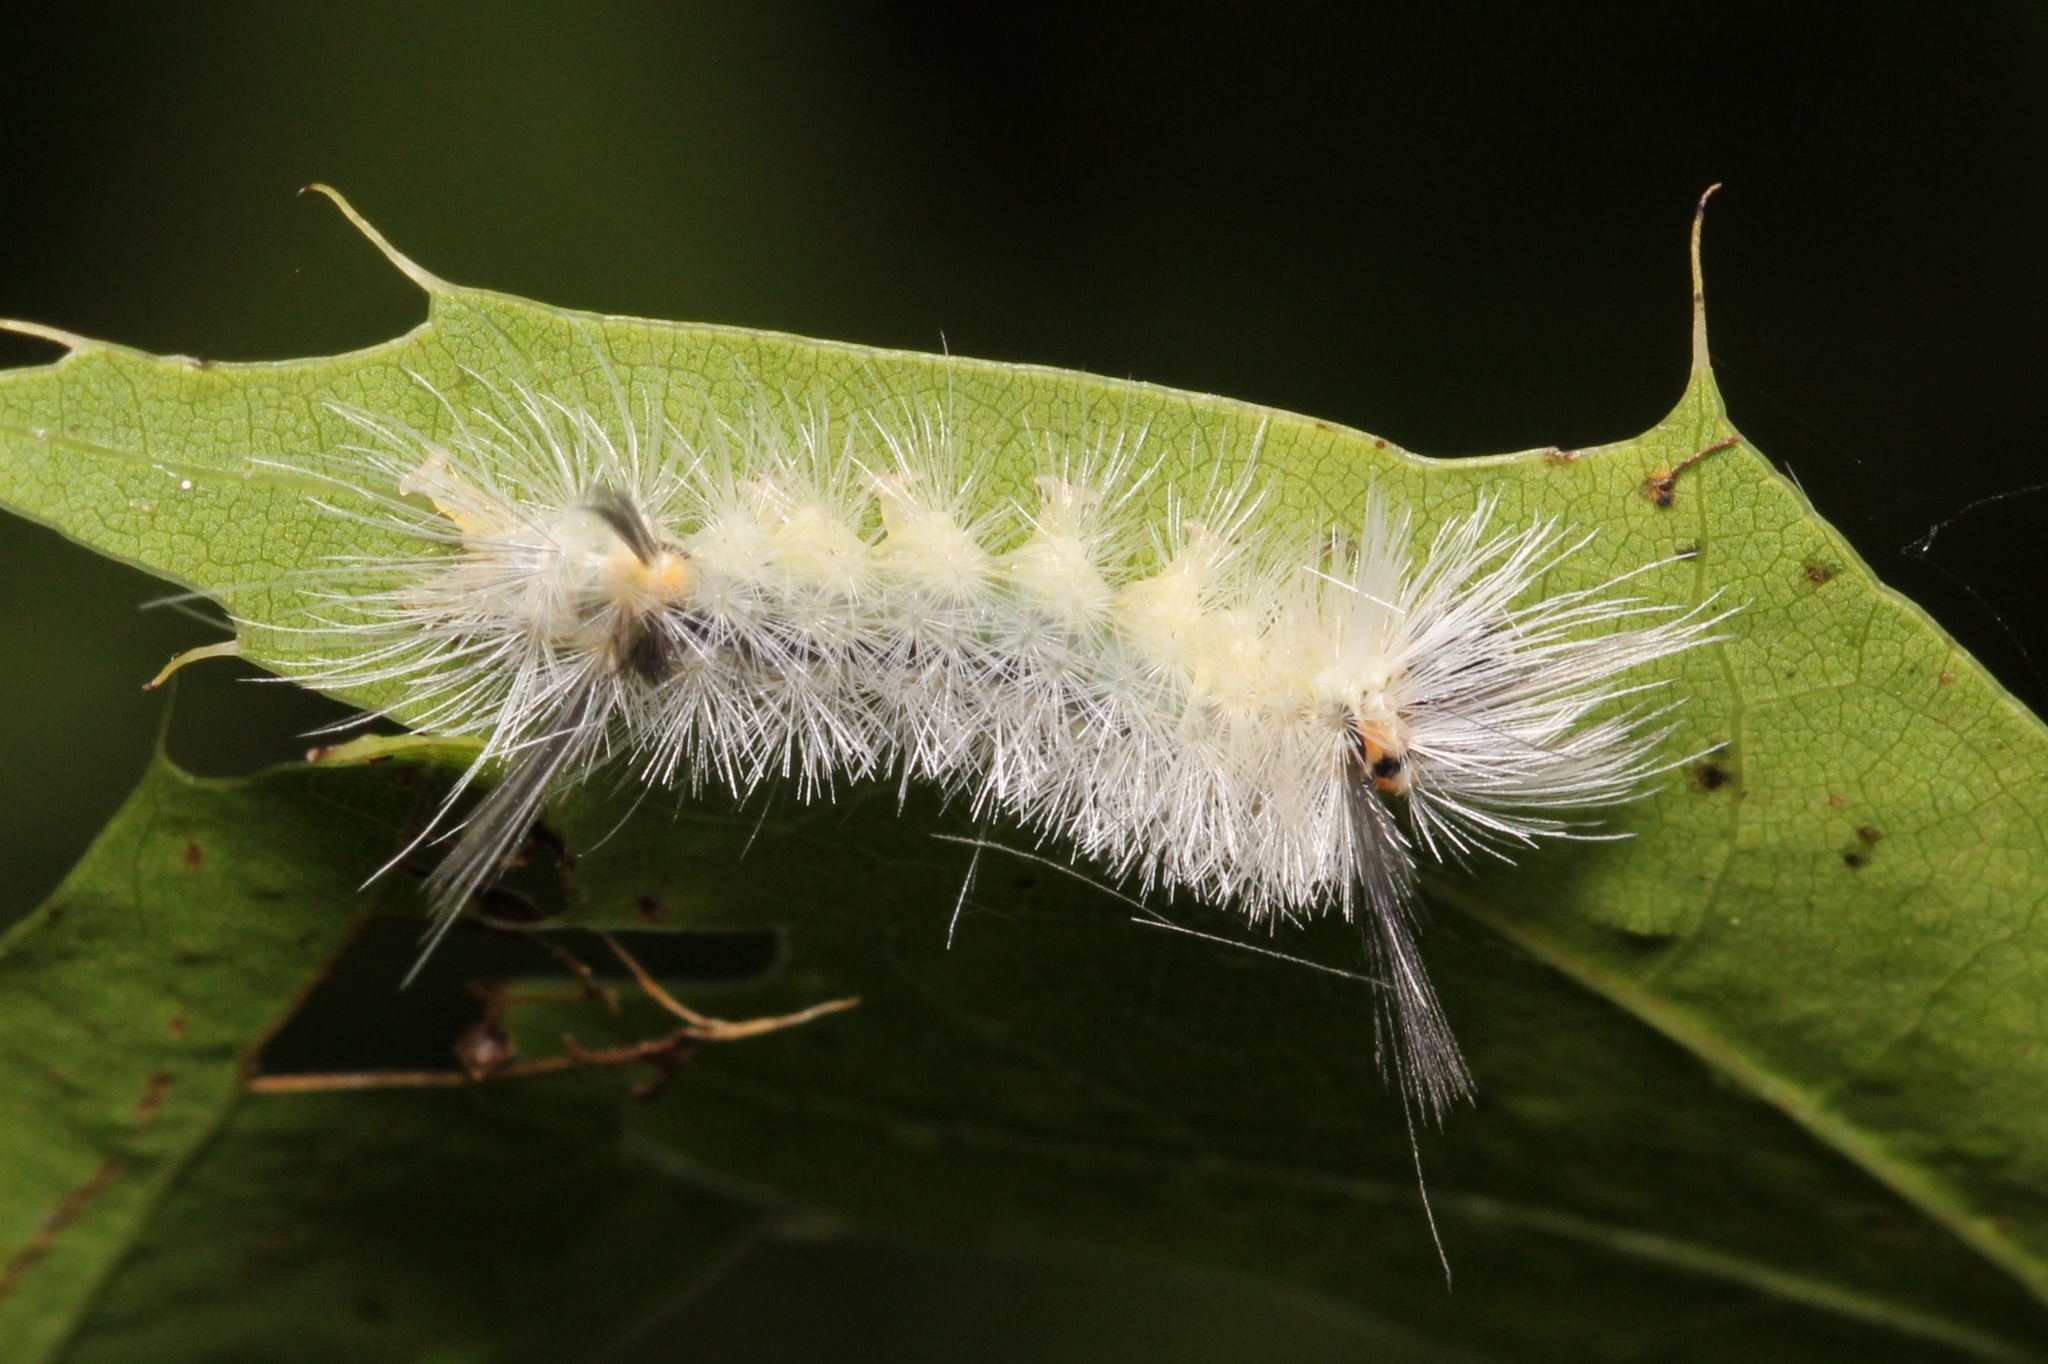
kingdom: Animalia
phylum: Arthropoda
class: Insecta
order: Lepidoptera
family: Erebidae
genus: Halysidota
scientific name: Halysidota tessellaris
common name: Banded tussock moth
